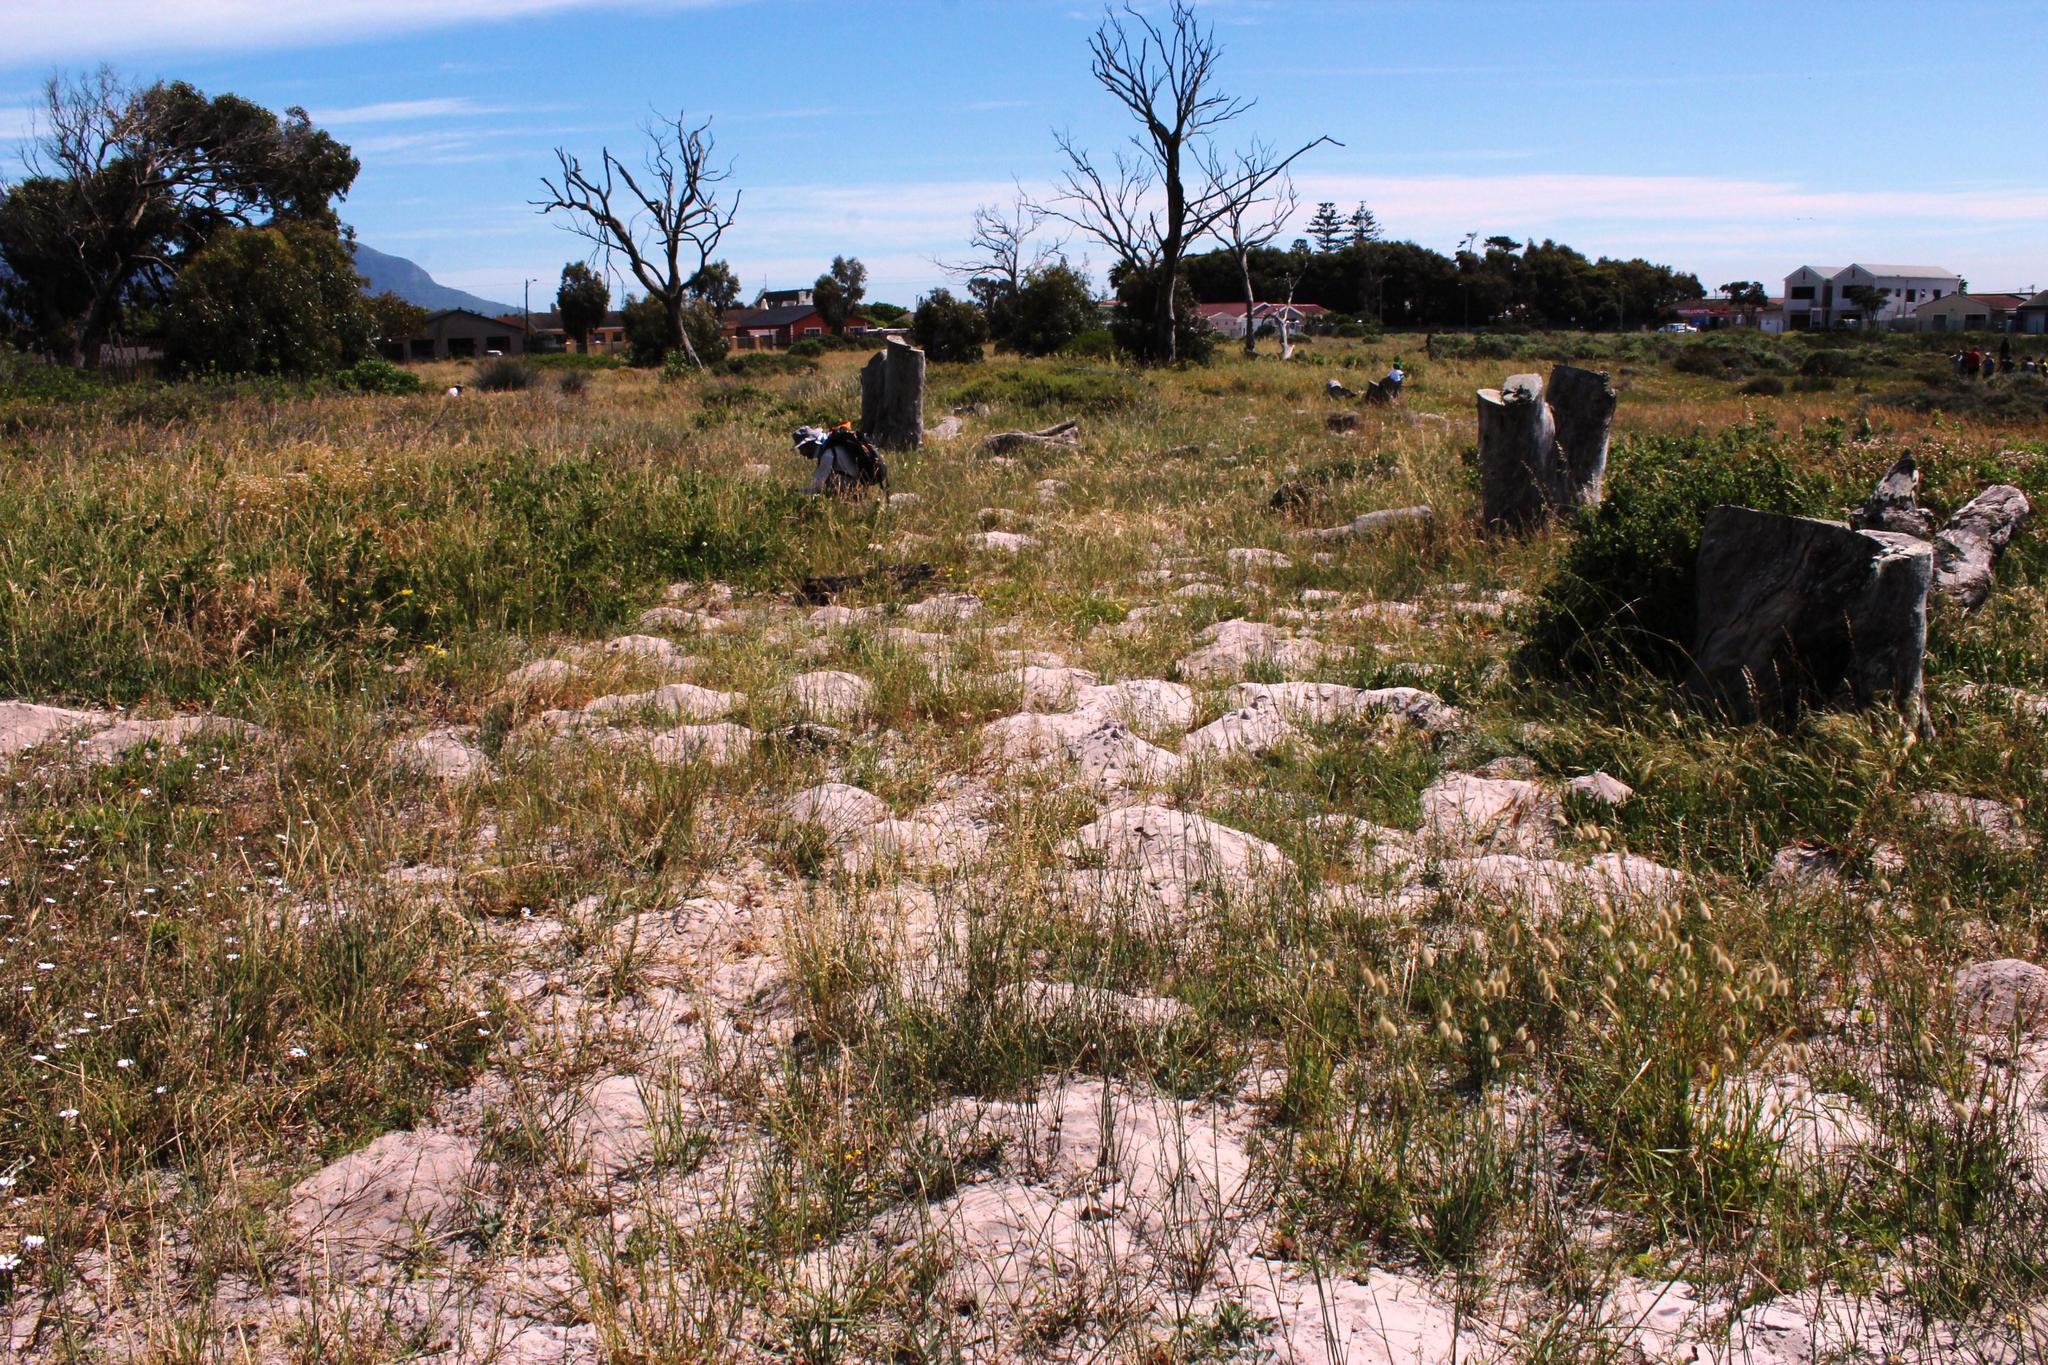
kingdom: Animalia
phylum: Chordata
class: Mammalia
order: Rodentia
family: Bathyergidae
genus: Bathyergus
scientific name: Bathyergus suillus
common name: Cape dune mole rat
